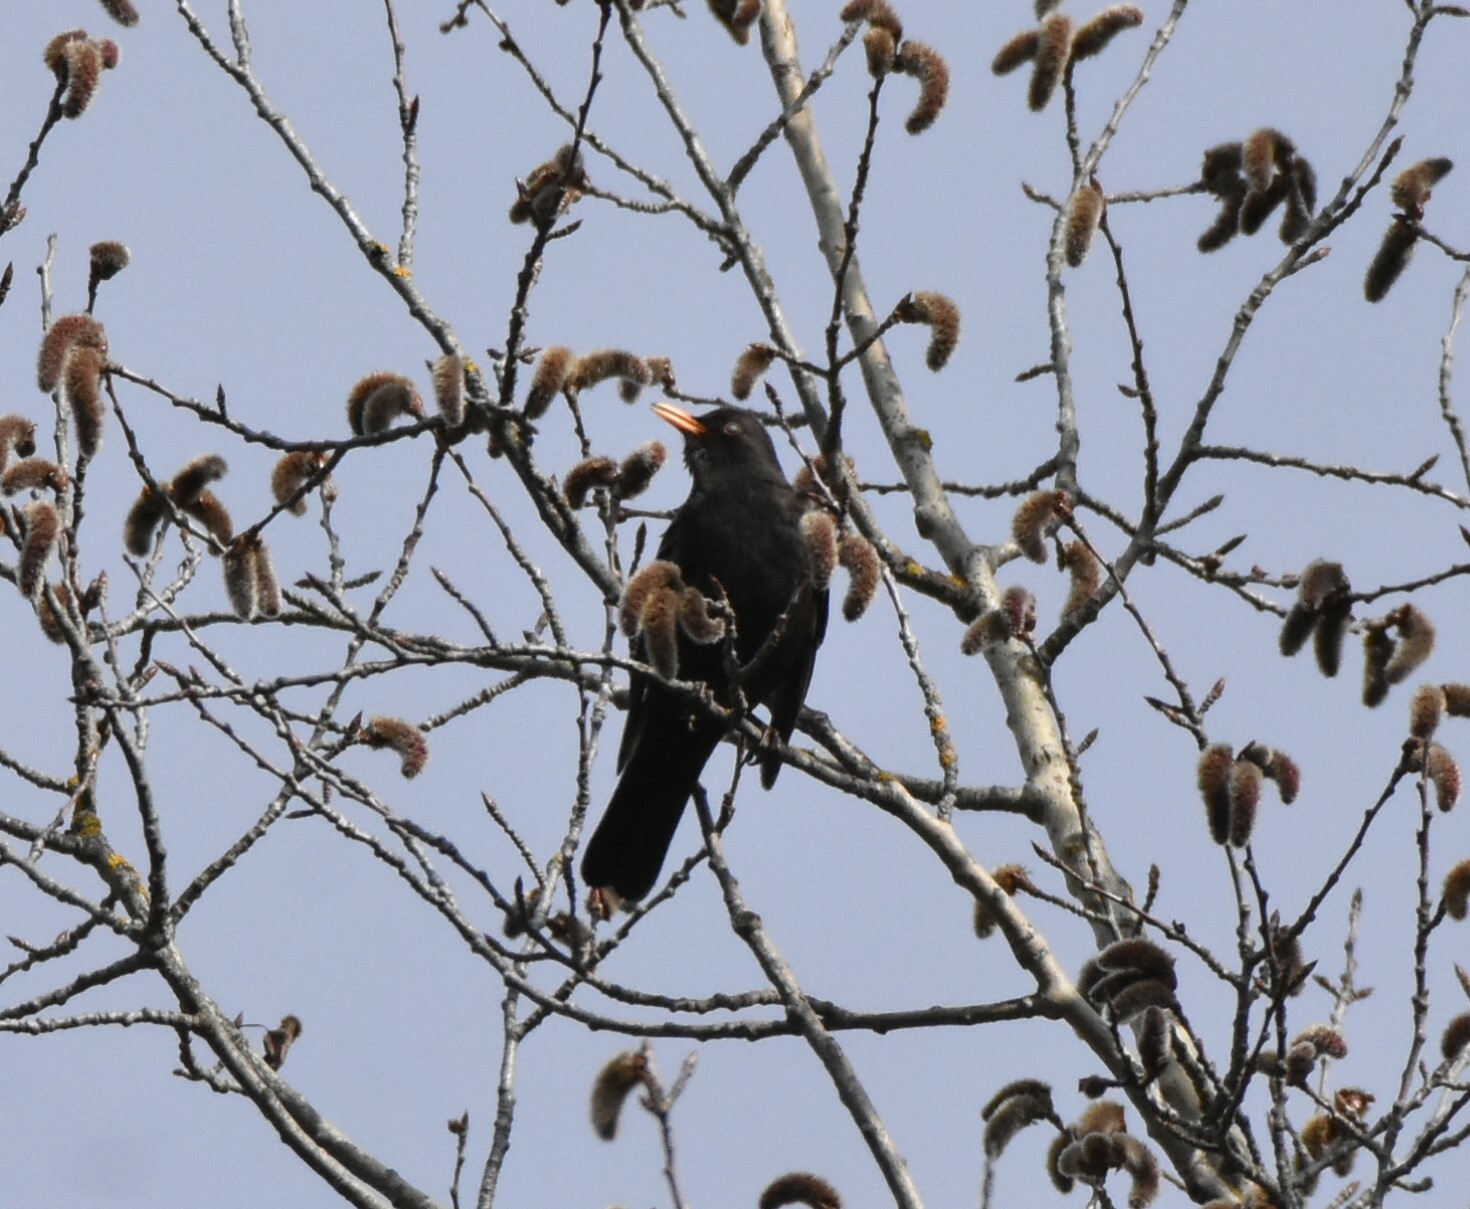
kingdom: Animalia
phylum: Chordata
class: Aves
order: Passeriformes
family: Turdidae
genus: Turdus
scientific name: Turdus merula
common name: Common blackbird
